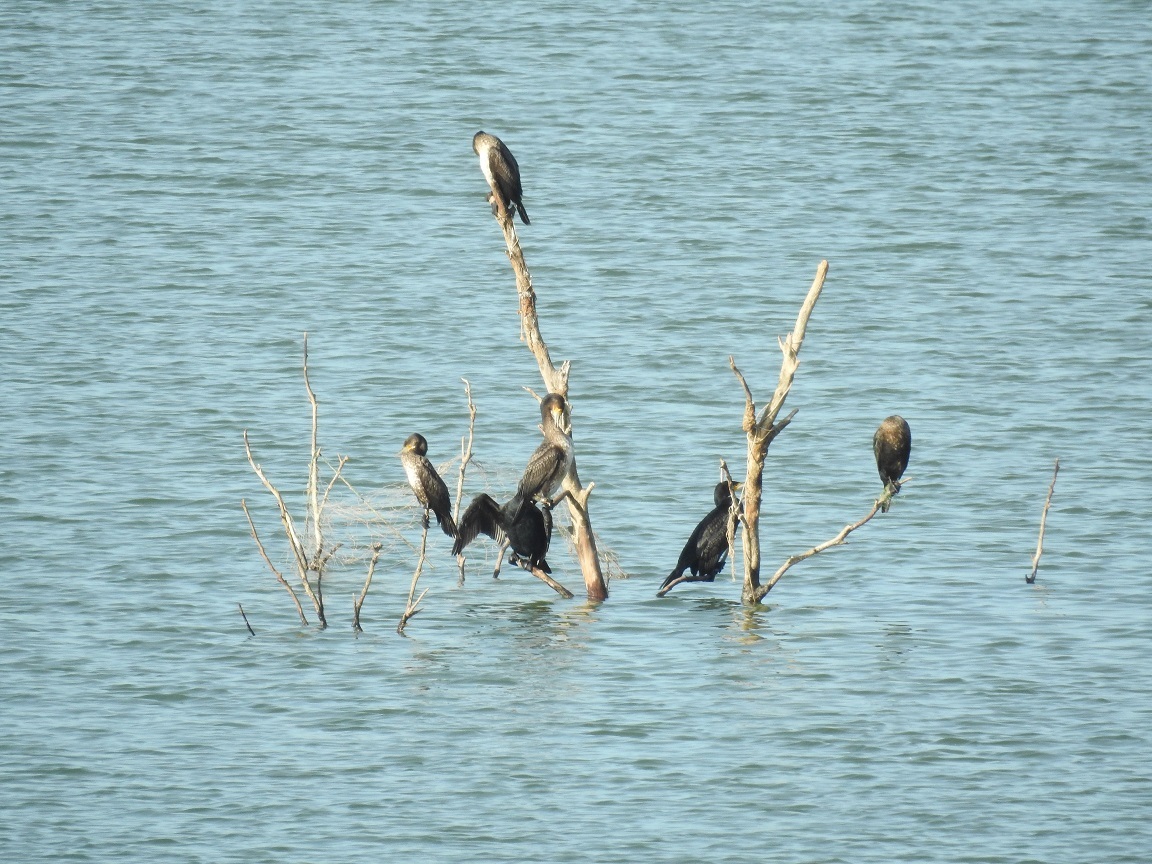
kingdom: Animalia
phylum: Chordata
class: Aves
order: Suliformes
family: Phalacrocoracidae
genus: Phalacrocorax
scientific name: Phalacrocorax carbo
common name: Great cormorant
